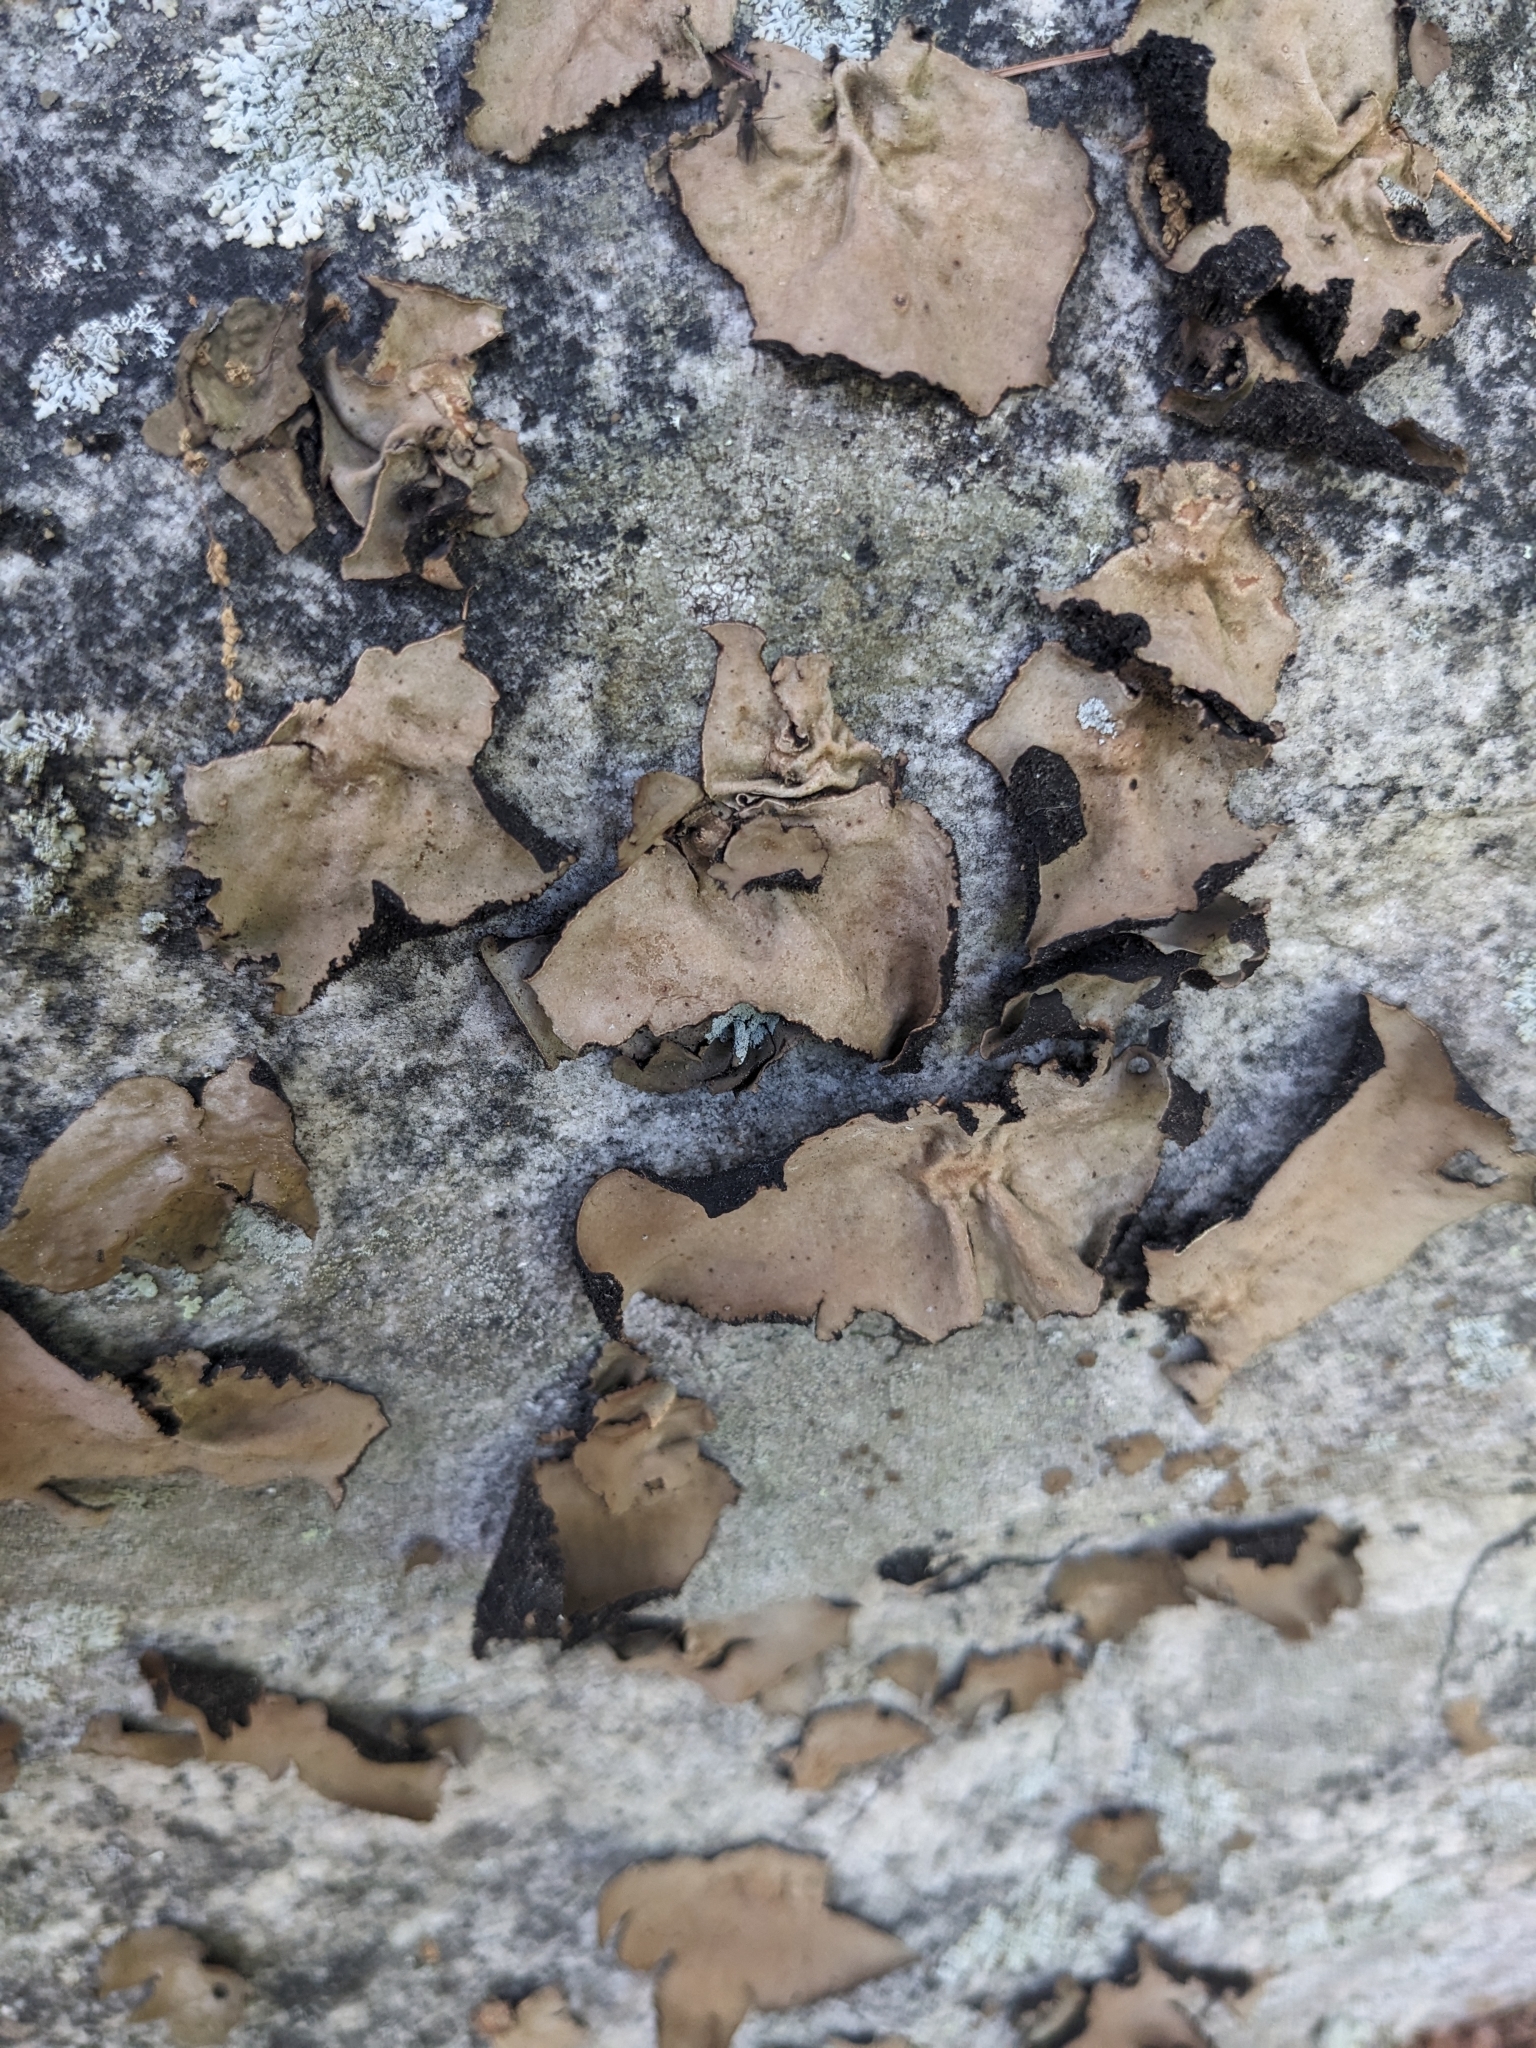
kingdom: Fungi
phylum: Ascomycota
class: Lecanoromycetes
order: Umbilicariales
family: Umbilicariaceae
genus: Umbilicaria
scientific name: Umbilicaria mammulata
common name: Smooth rock tripe
